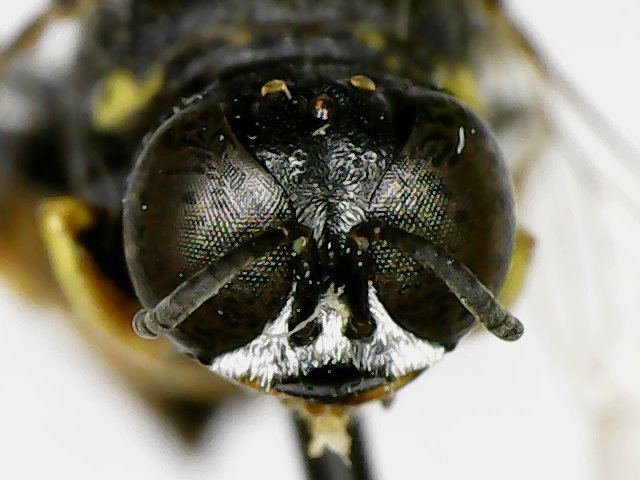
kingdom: Animalia
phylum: Arthropoda
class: Insecta
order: Hymenoptera
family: Crabronidae
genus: Anacrabro
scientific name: Anacrabro ocellatus
